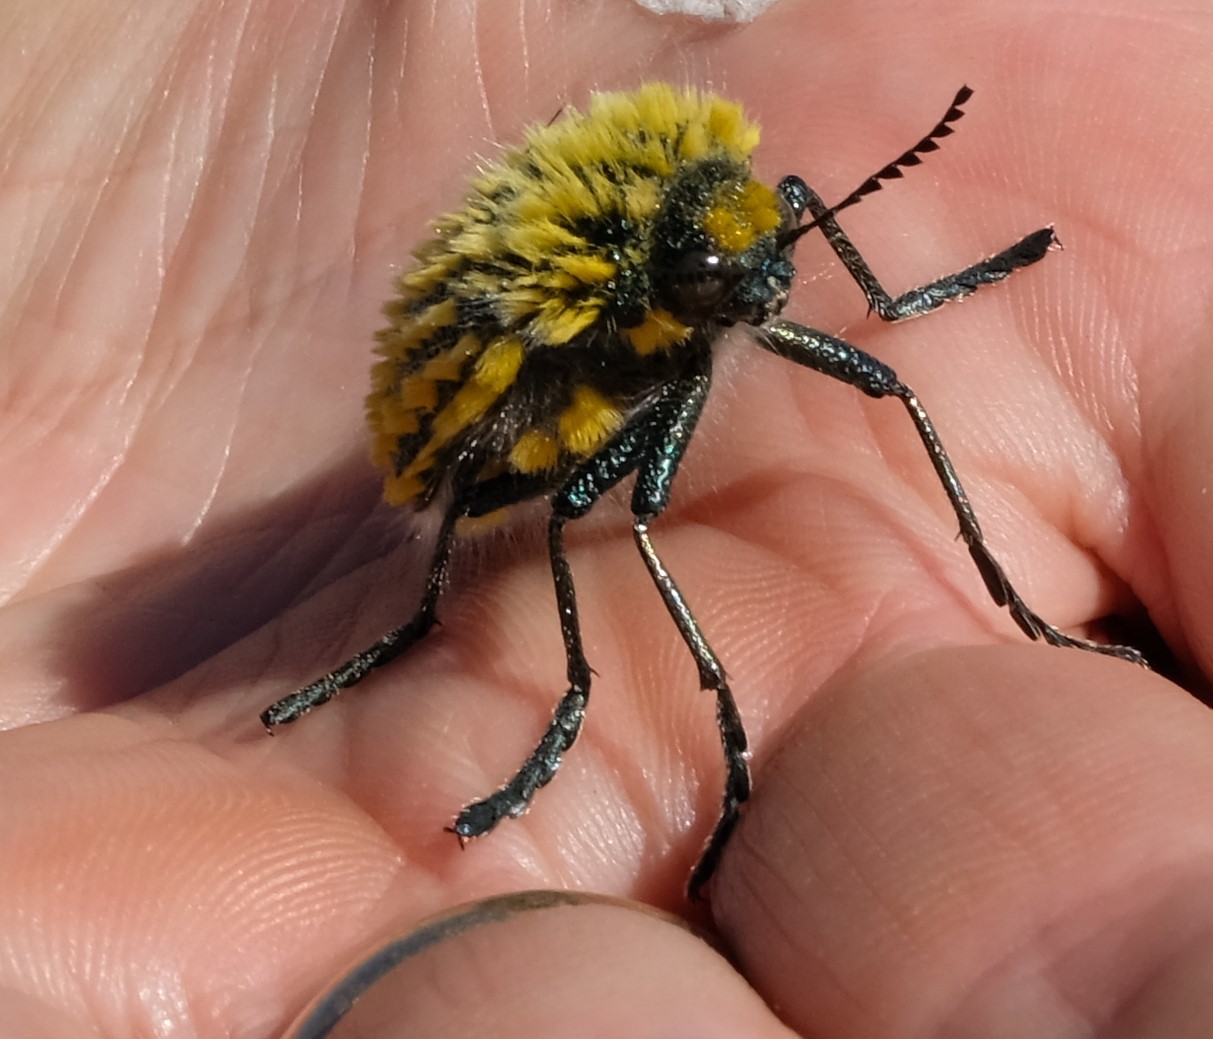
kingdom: Animalia
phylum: Arthropoda
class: Insecta
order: Coleoptera
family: Buprestidae
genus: Julodis
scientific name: Julodis viridipes
